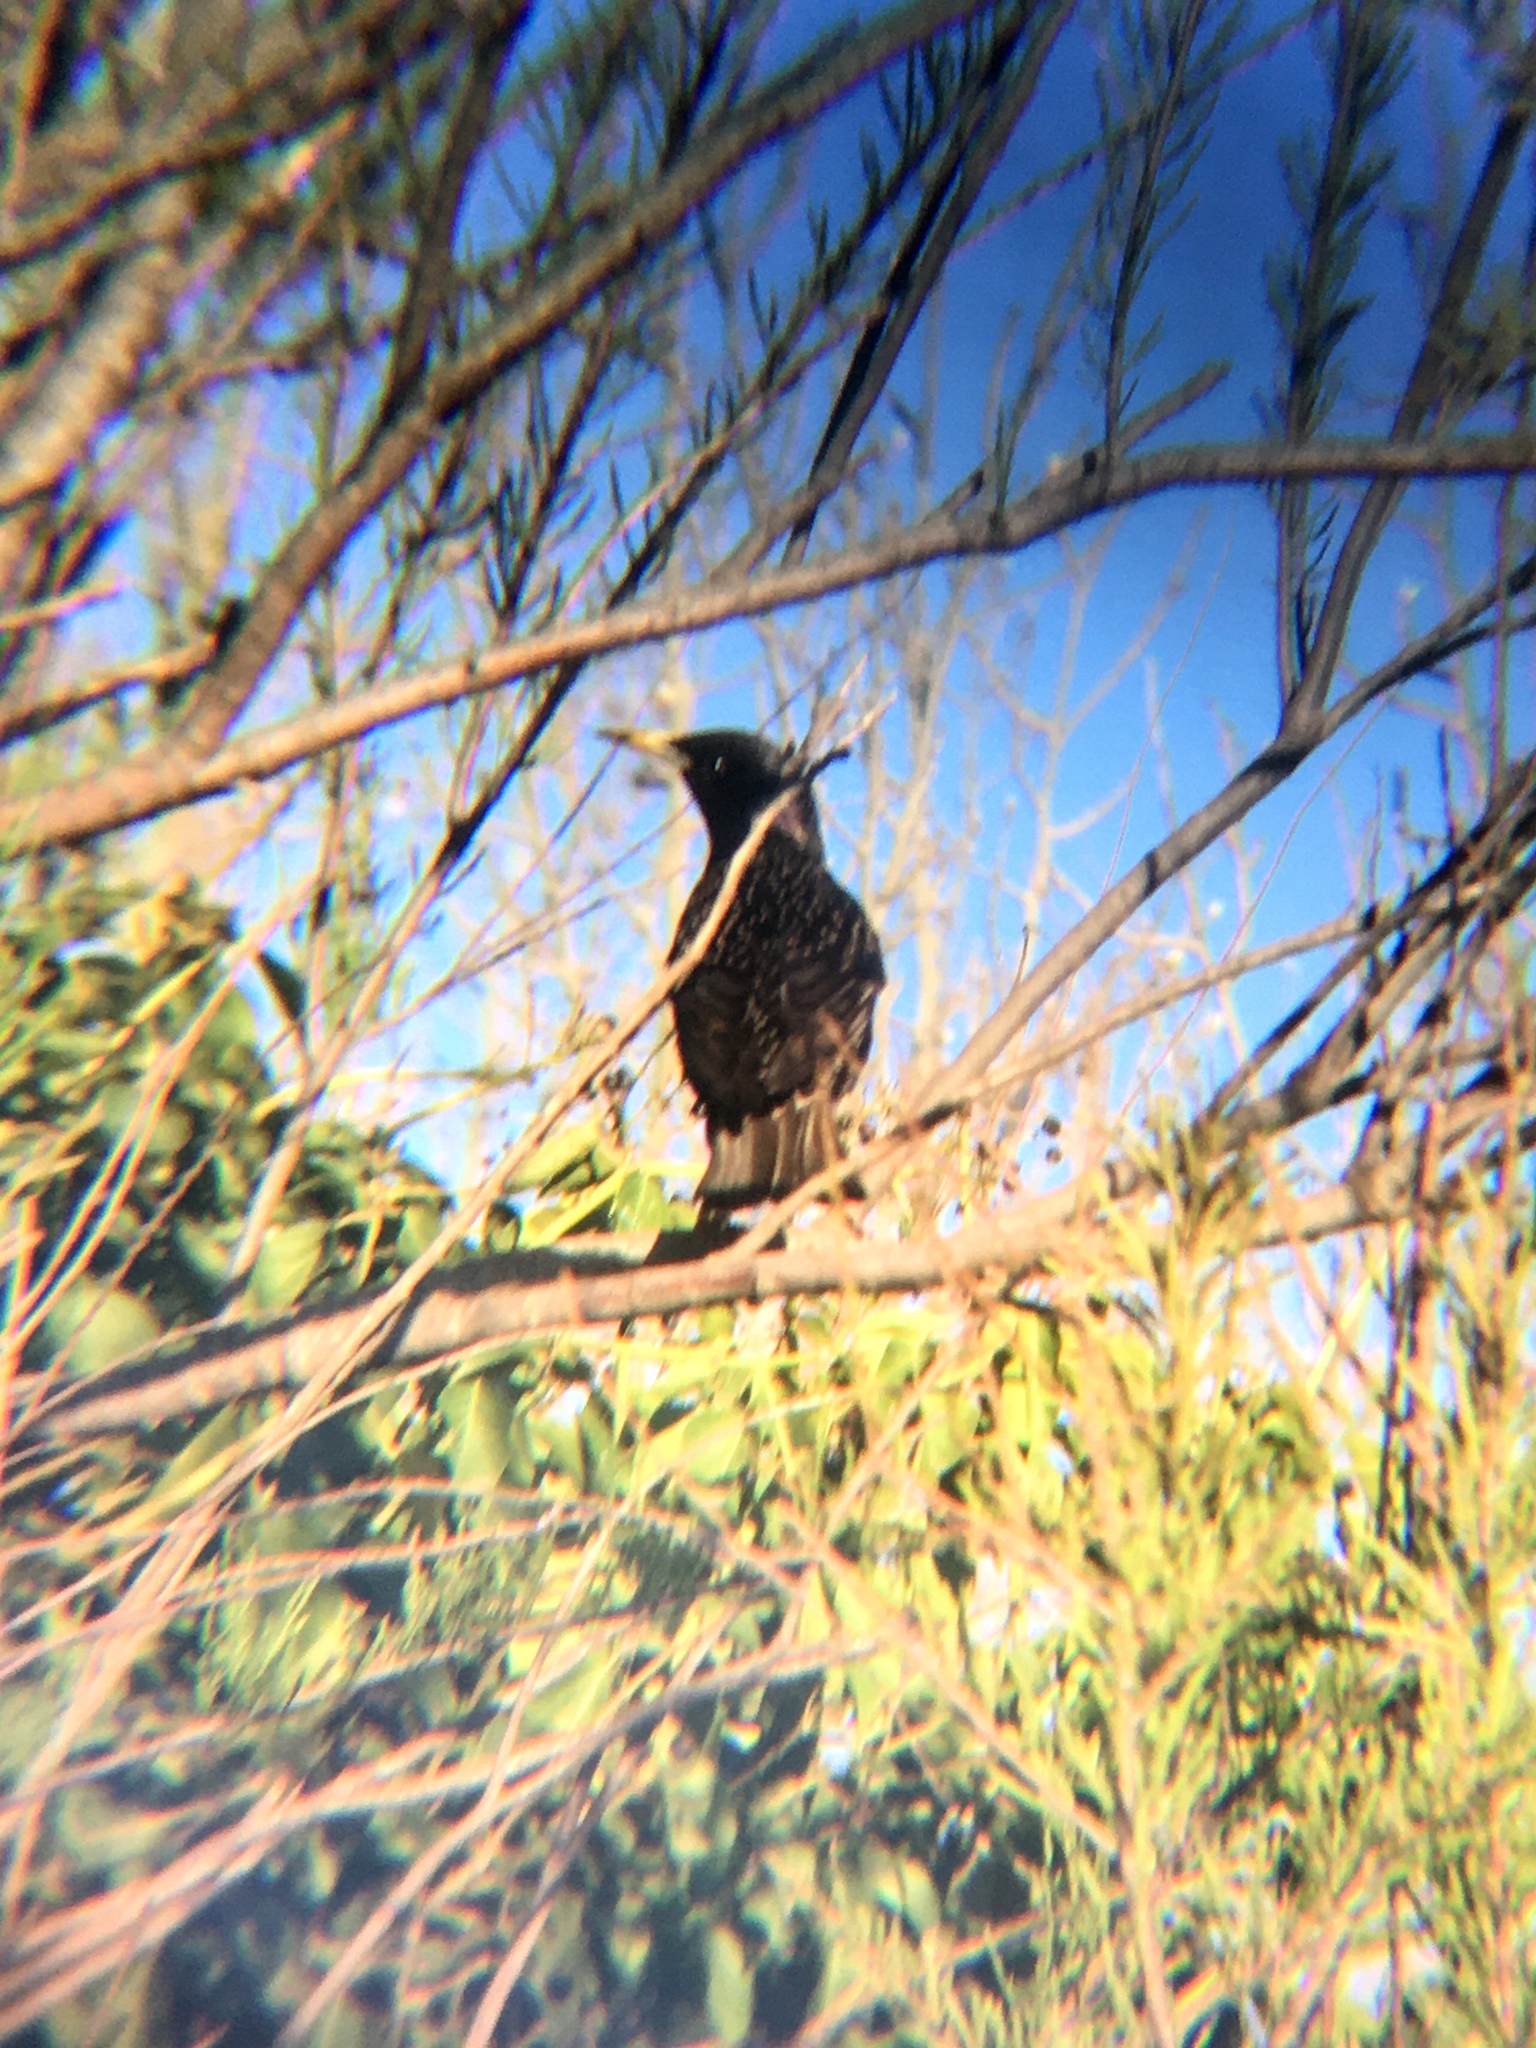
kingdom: Animalia
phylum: Chordata
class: Aves
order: Passeriformes
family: Sturnidae
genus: Sturnus
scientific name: Sturnus vulgaris
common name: Common starling
